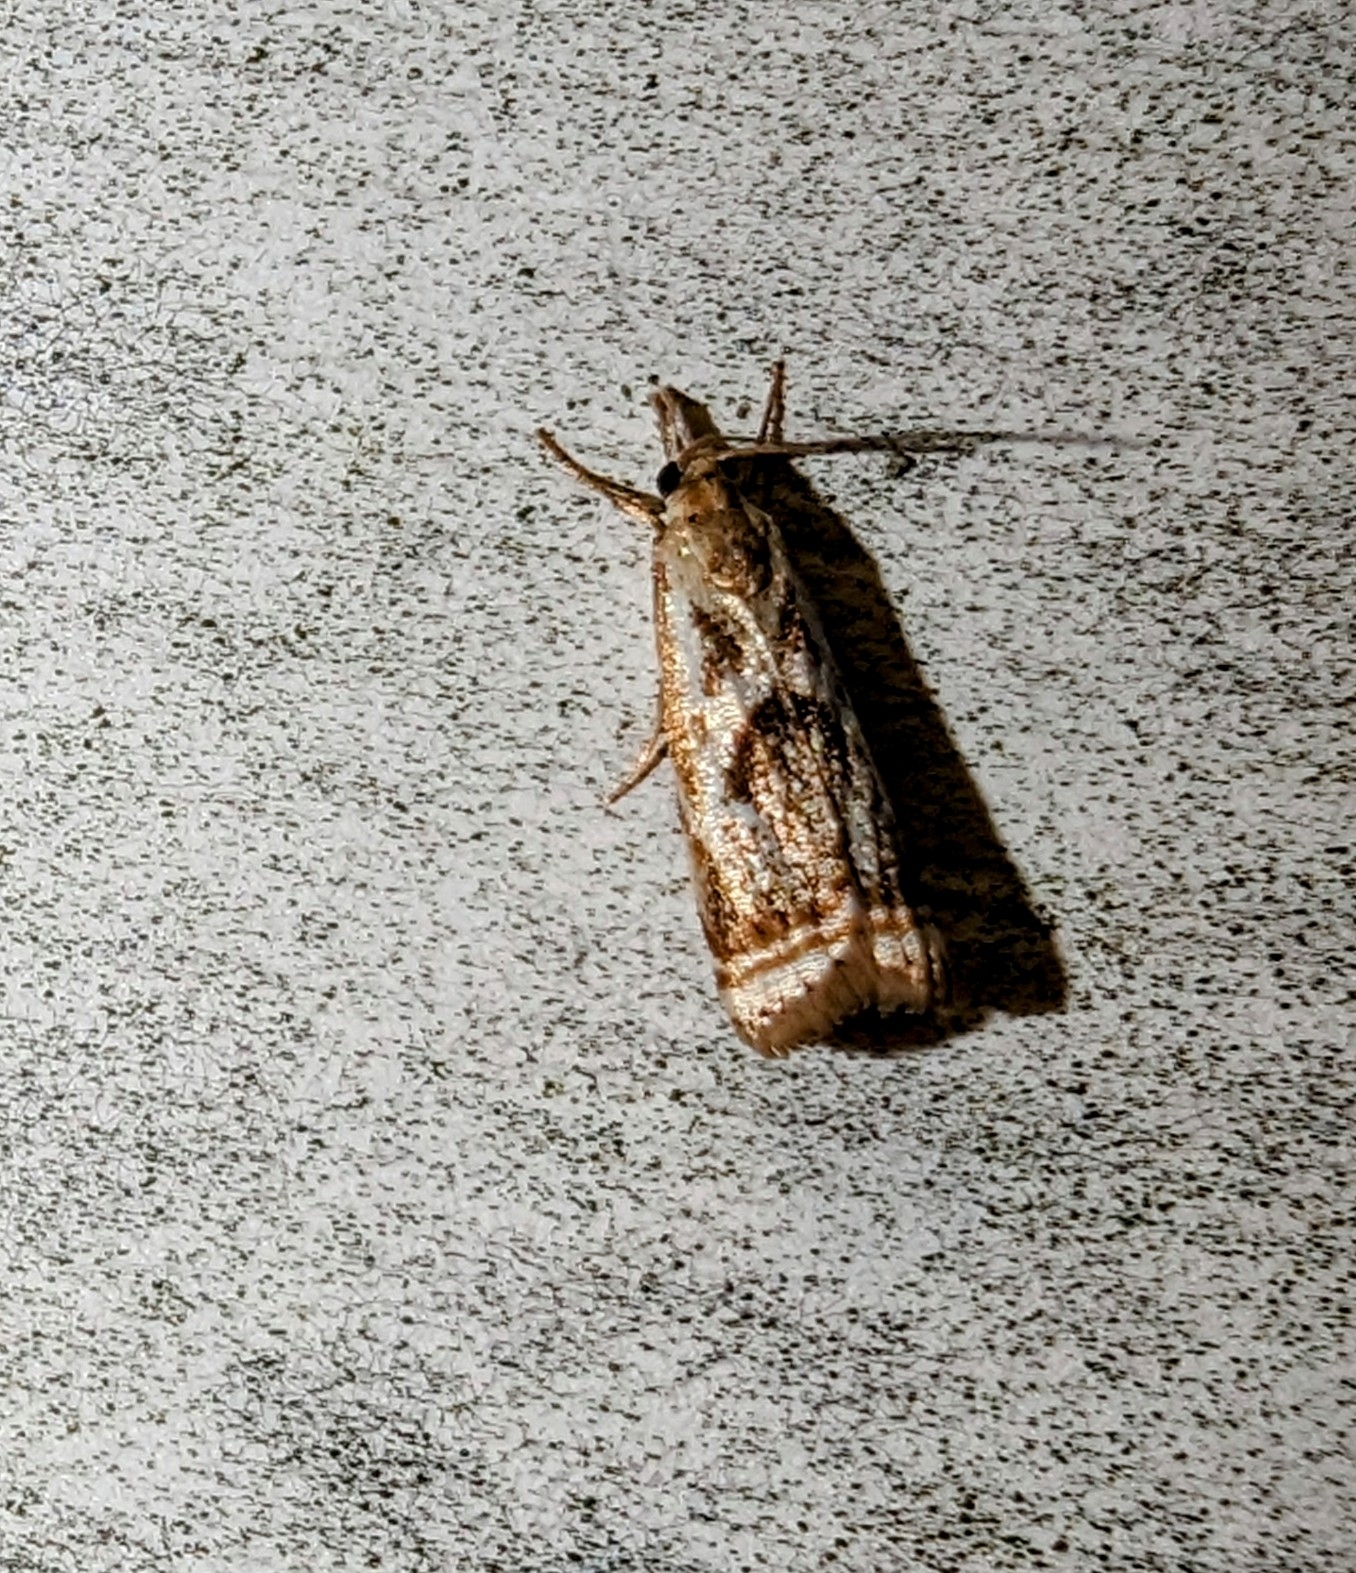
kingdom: Animalia
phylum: Arthropoda
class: Insecta
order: Lepidoptera
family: Crambidae
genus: Microcrambus
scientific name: Microcrambus elegans
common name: Elegant grass-veneer
